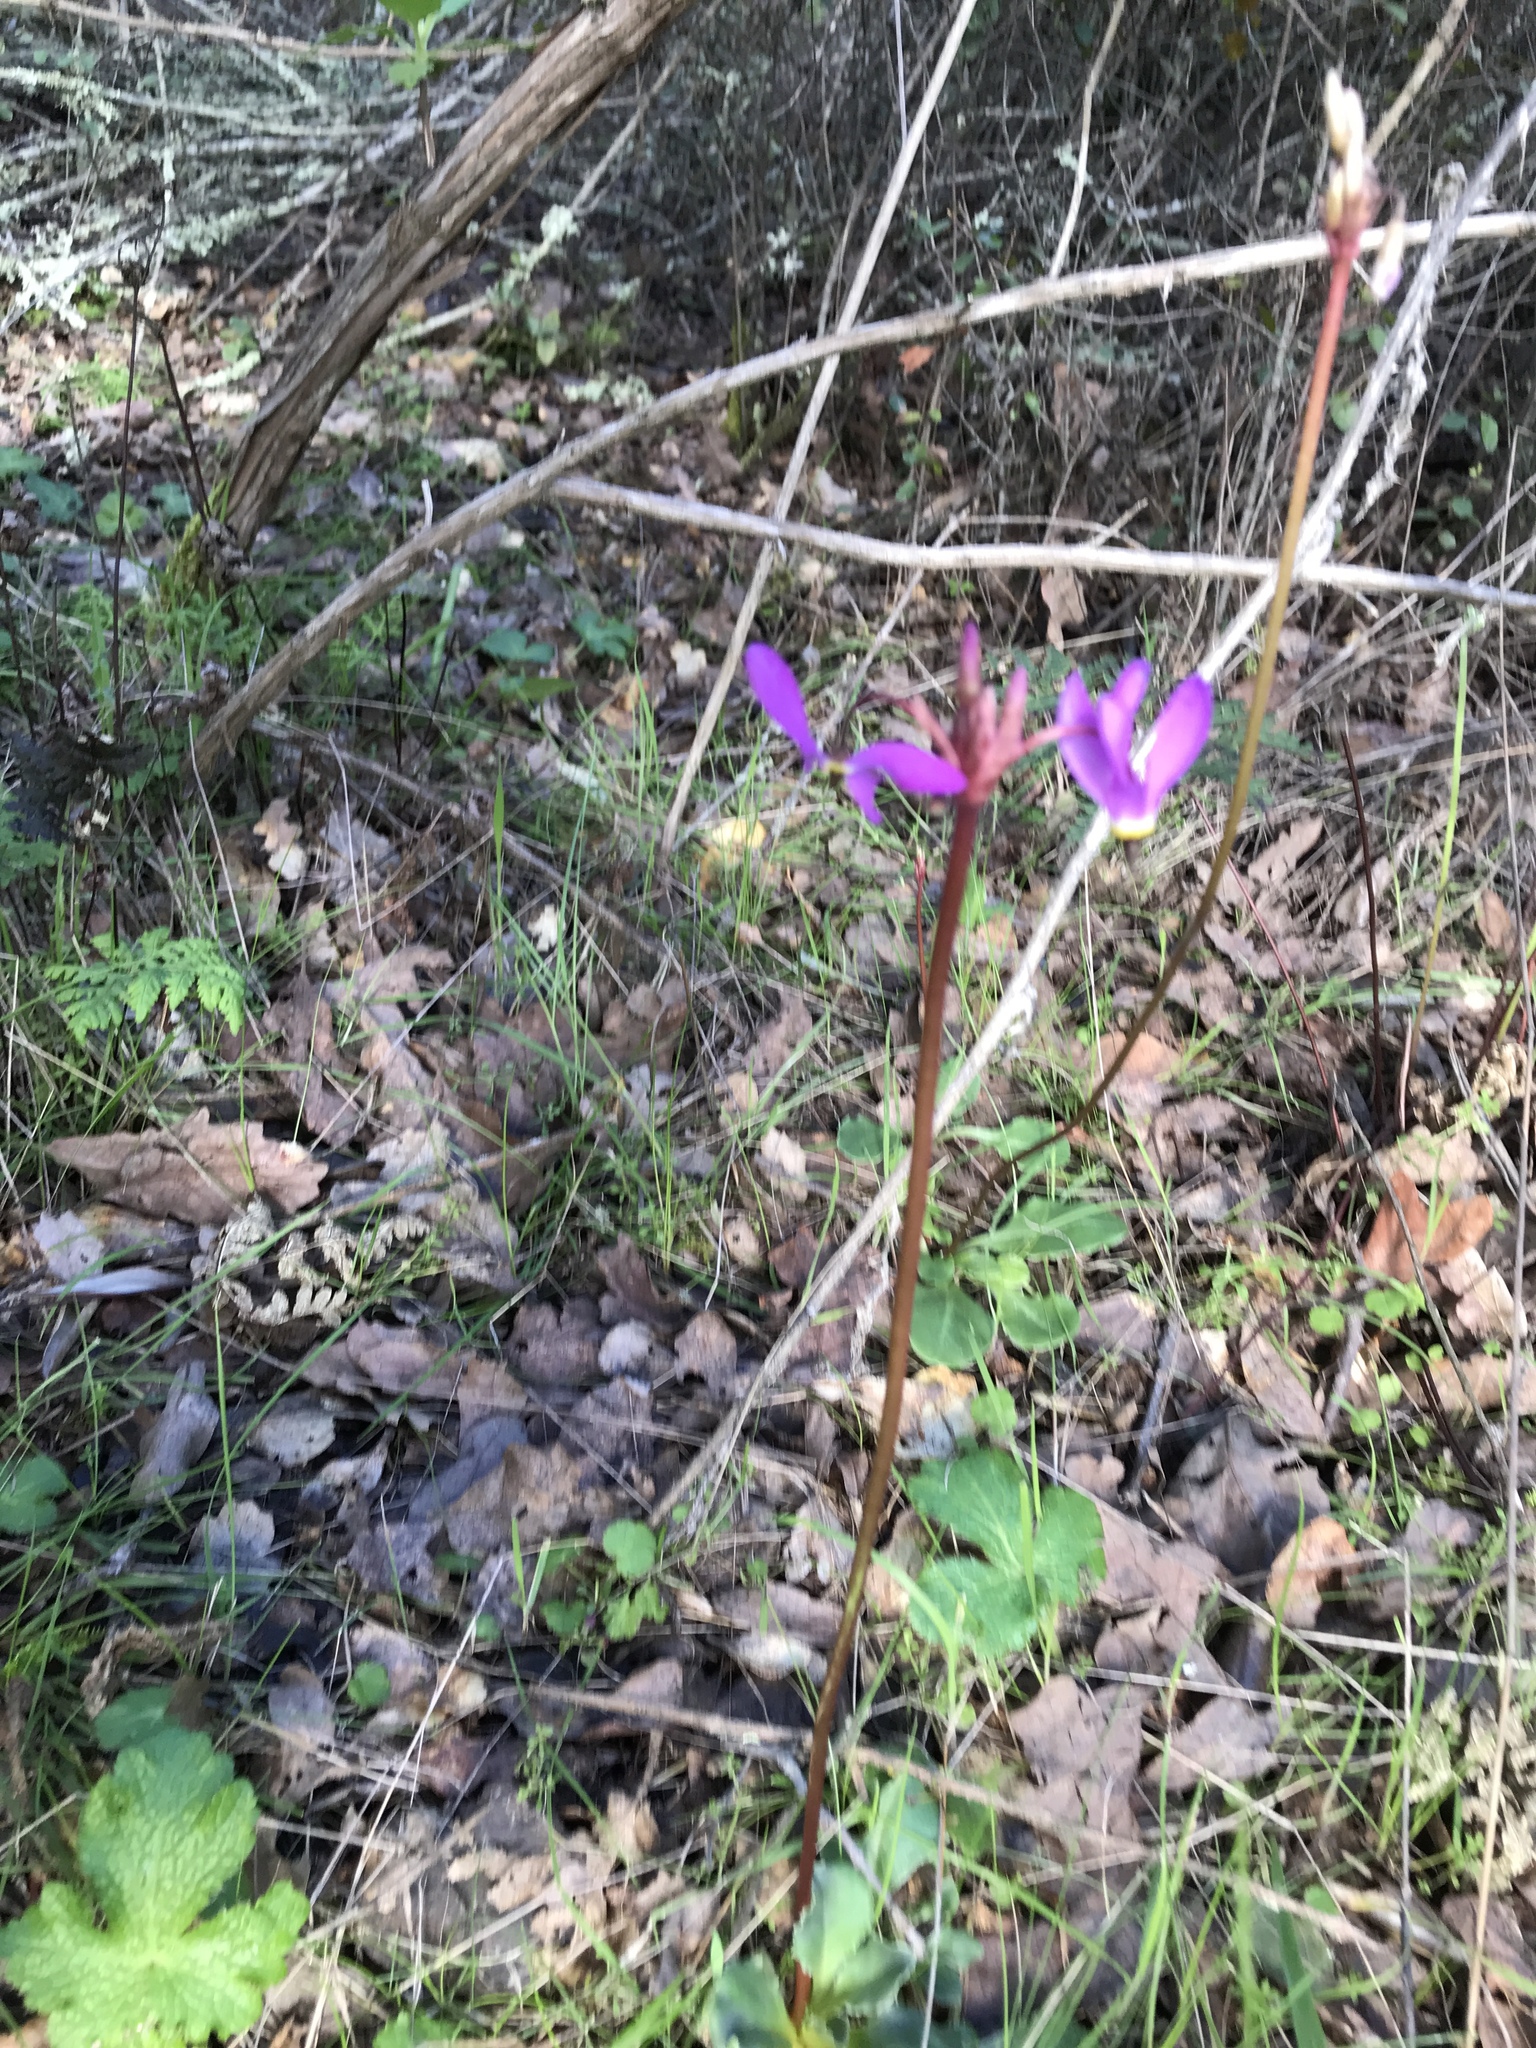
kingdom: Plantae
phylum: Tracheophyta
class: Magnoliopsida
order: Ericales
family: Primulaceae
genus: Dodecatheon
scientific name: Dodecatheon hendersonii
